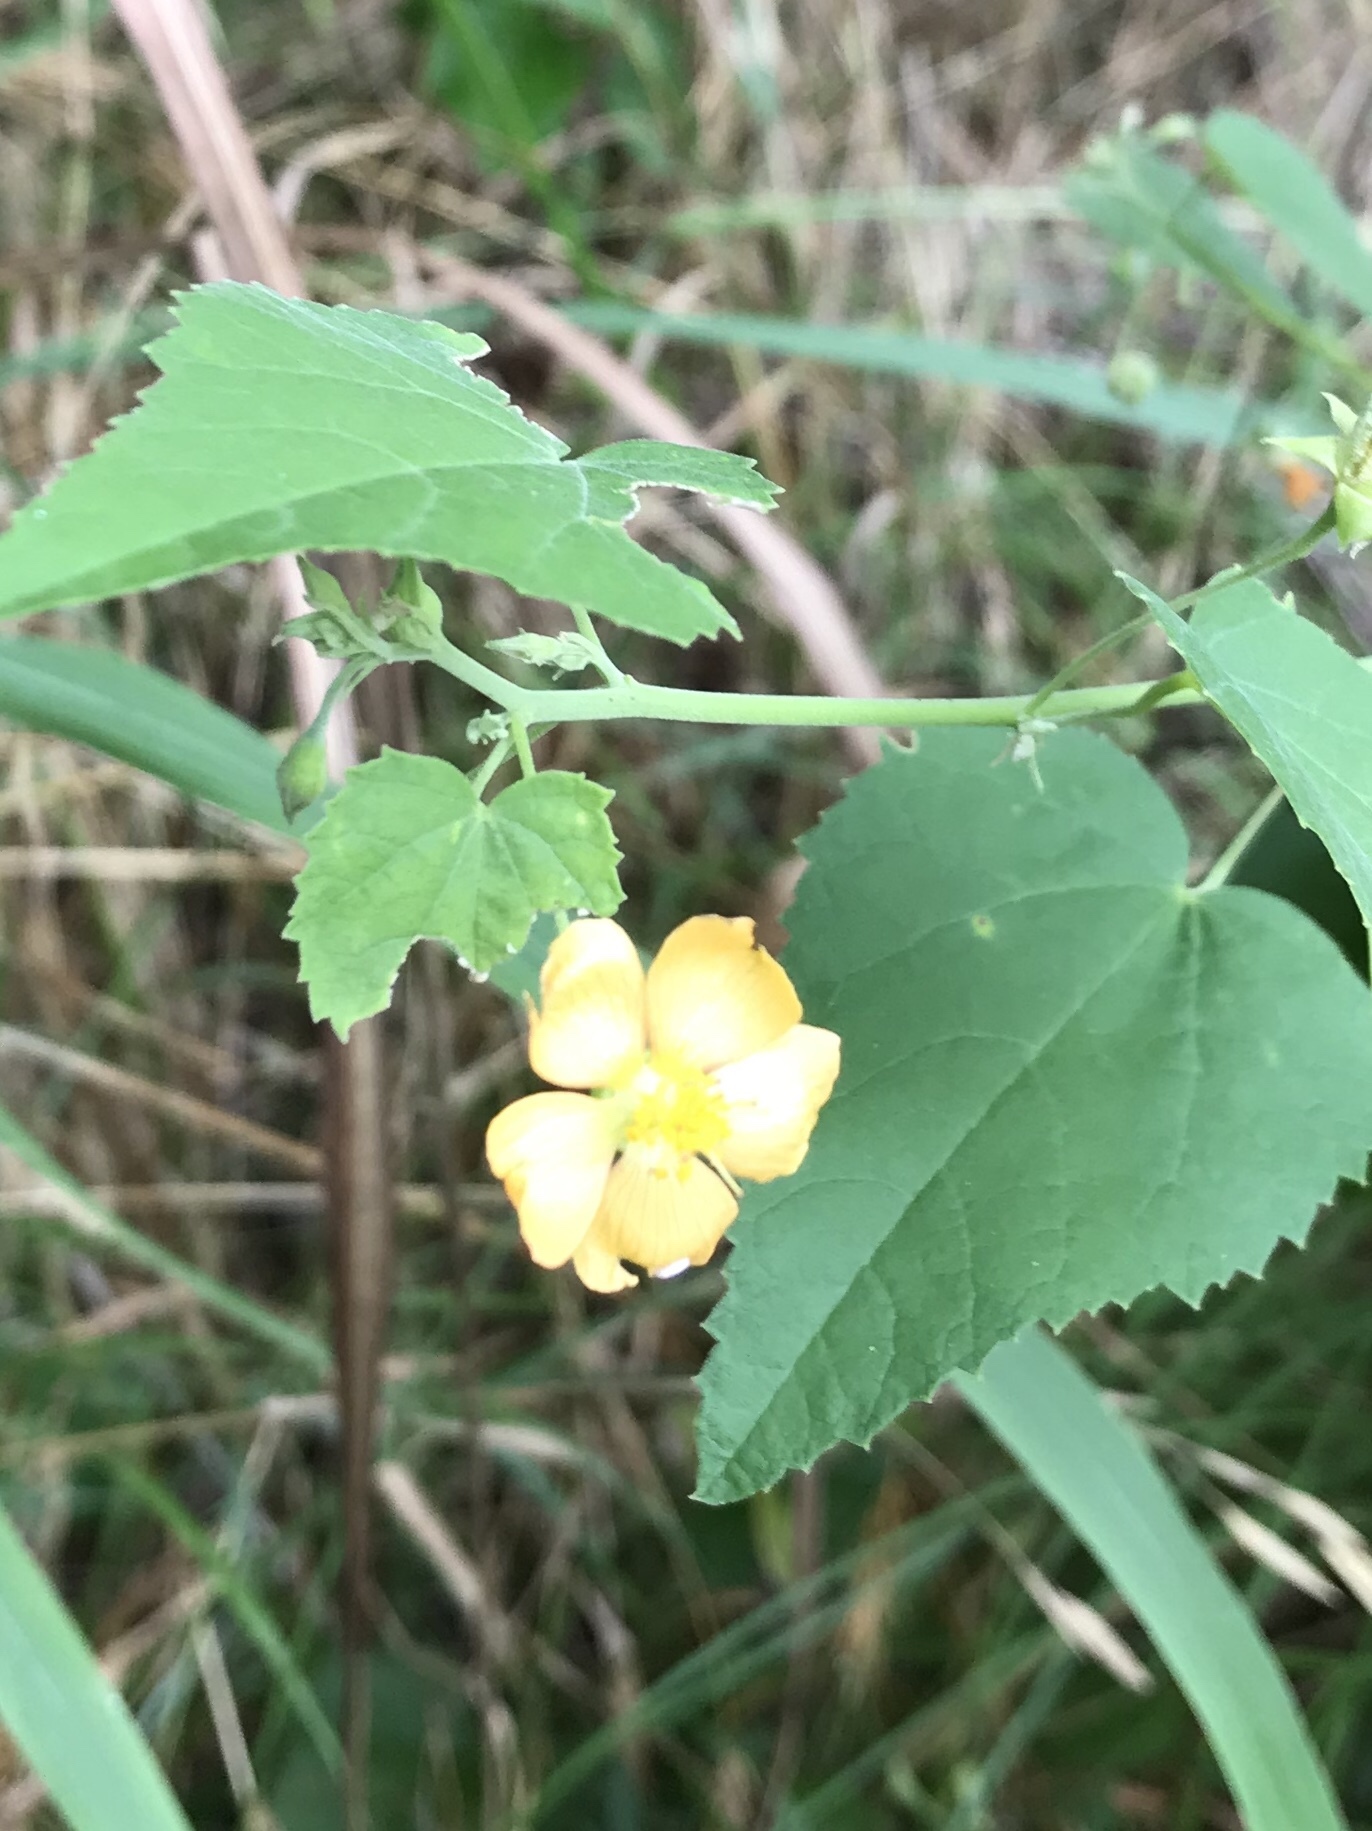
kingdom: Plantae
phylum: Tracheophyta
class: Magnoliopsida
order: Malvales
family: Malvaceae
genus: Abutilon
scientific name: Abutilon fruticosum
